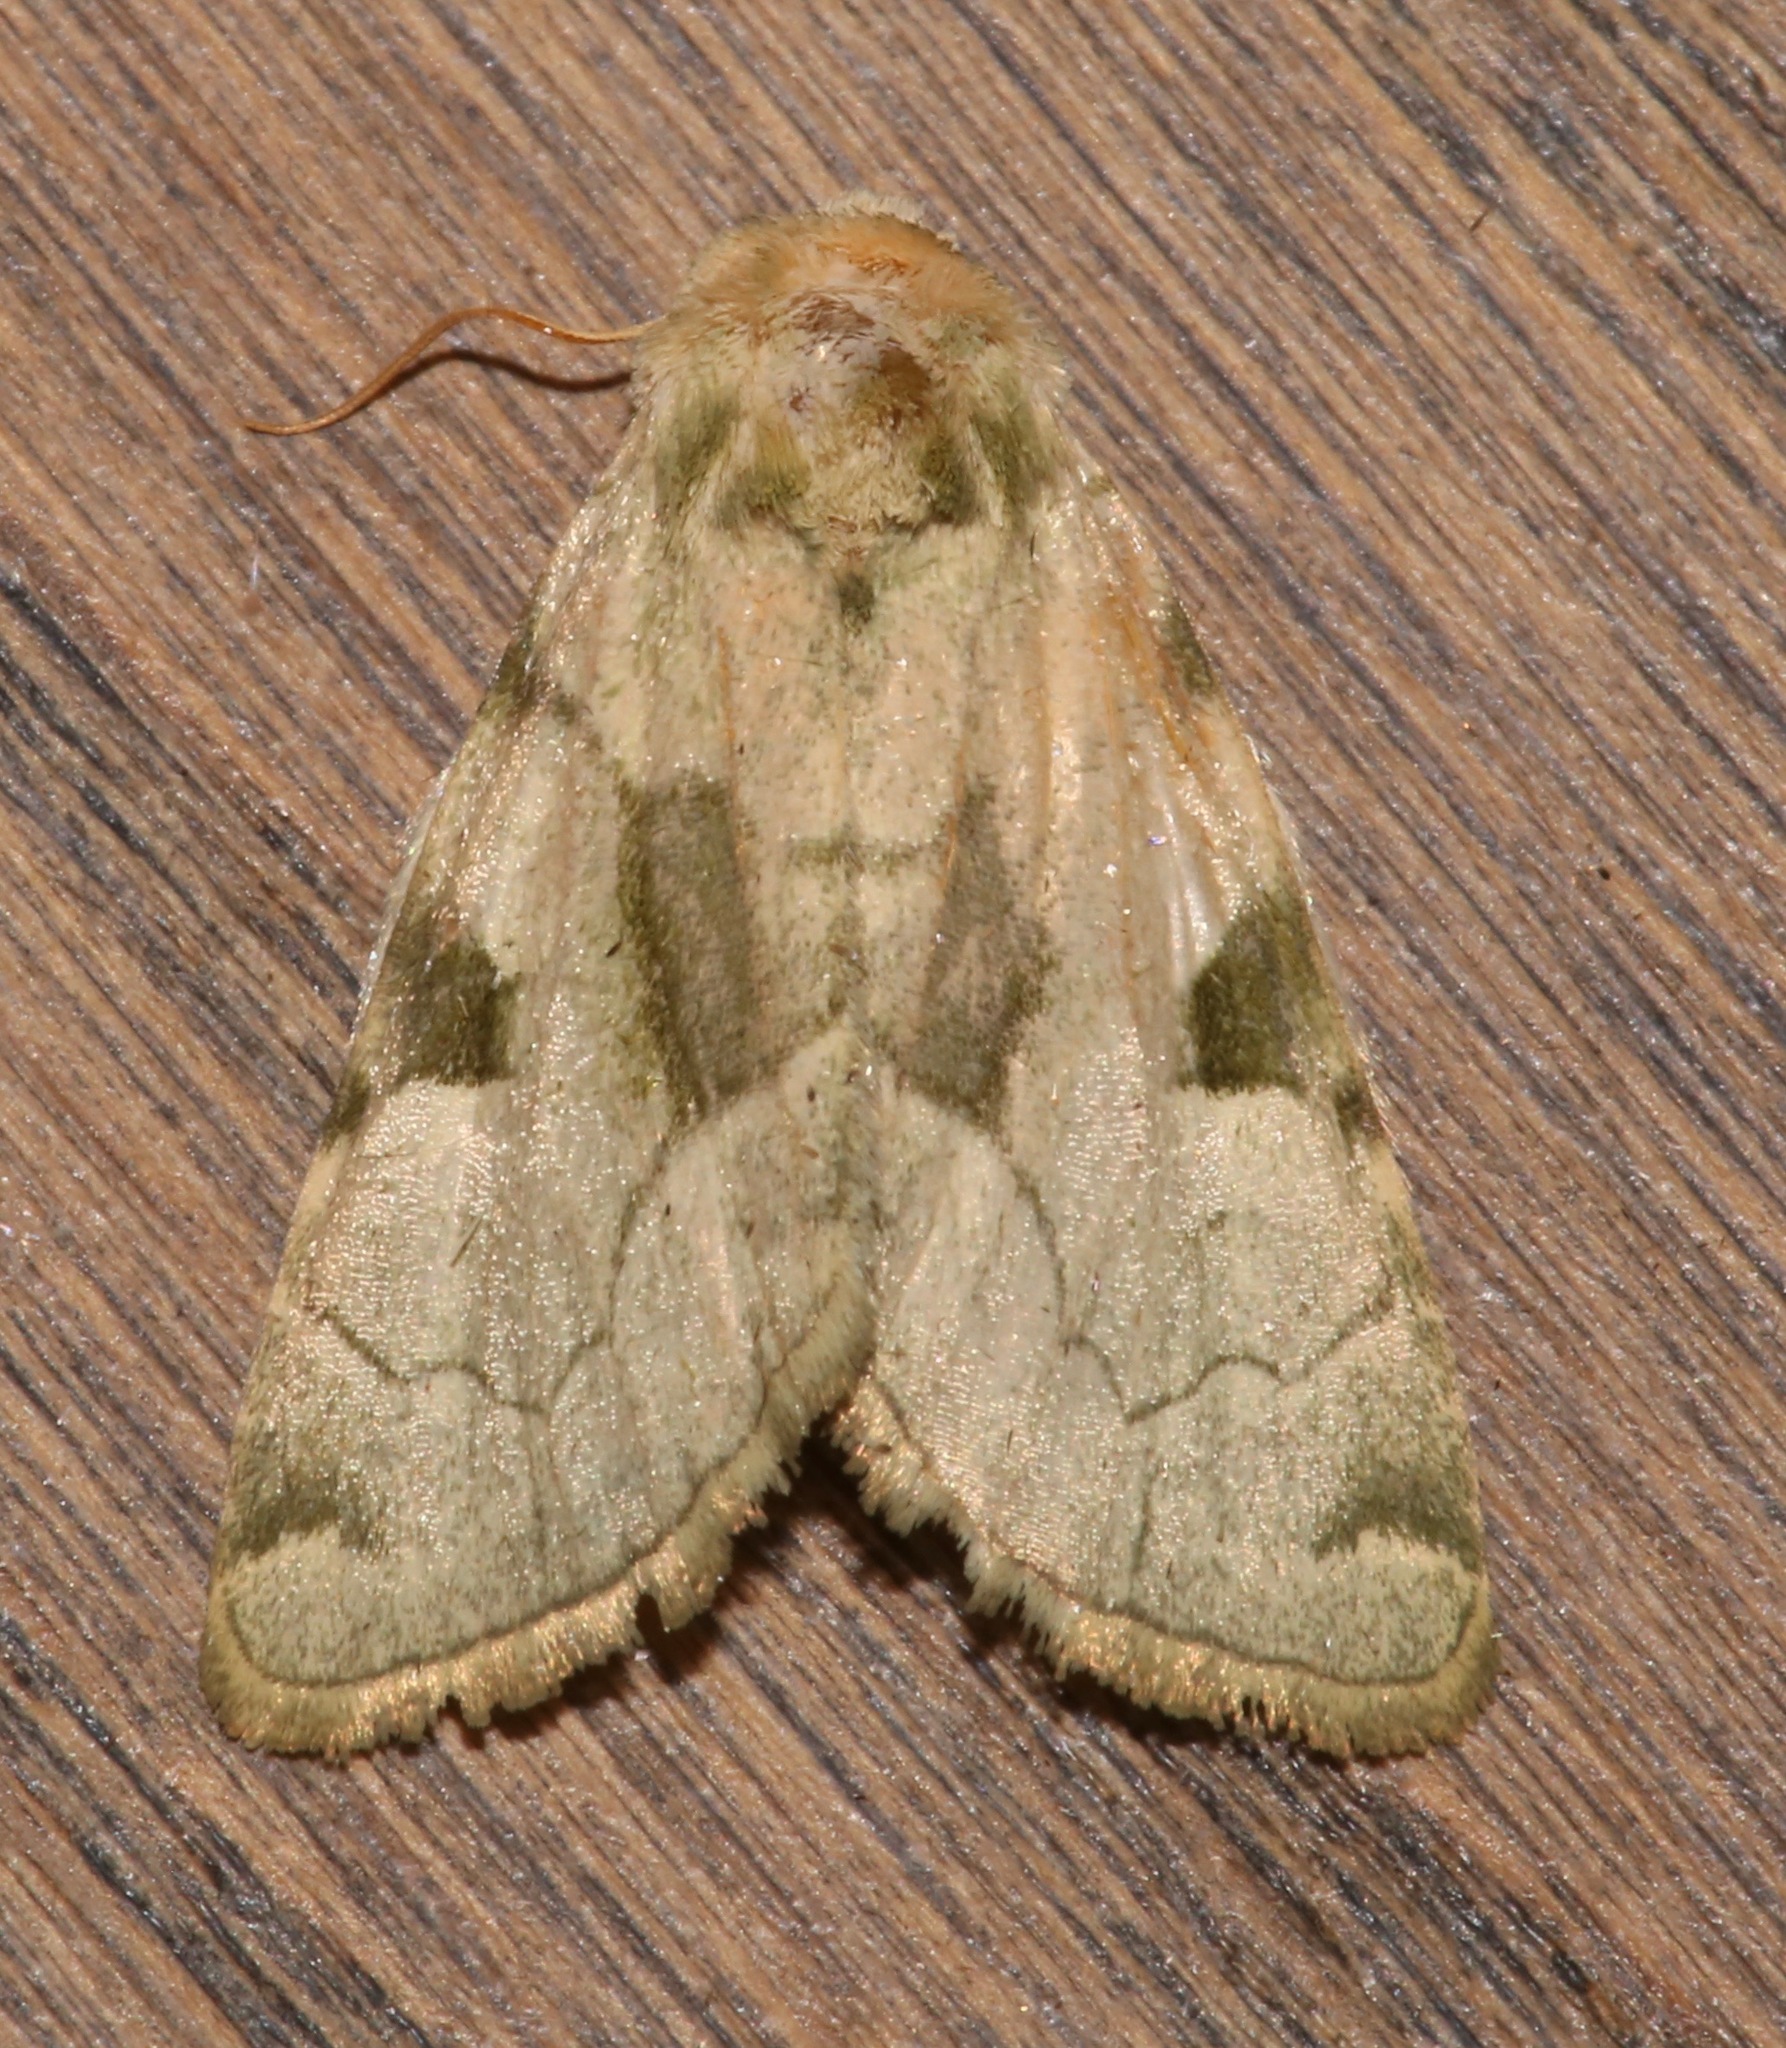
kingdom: Animalia
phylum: Arthropoda
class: Insecta
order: Lepidoptera
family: Noctuidae
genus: Oslaria
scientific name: Oslaria viridifera
